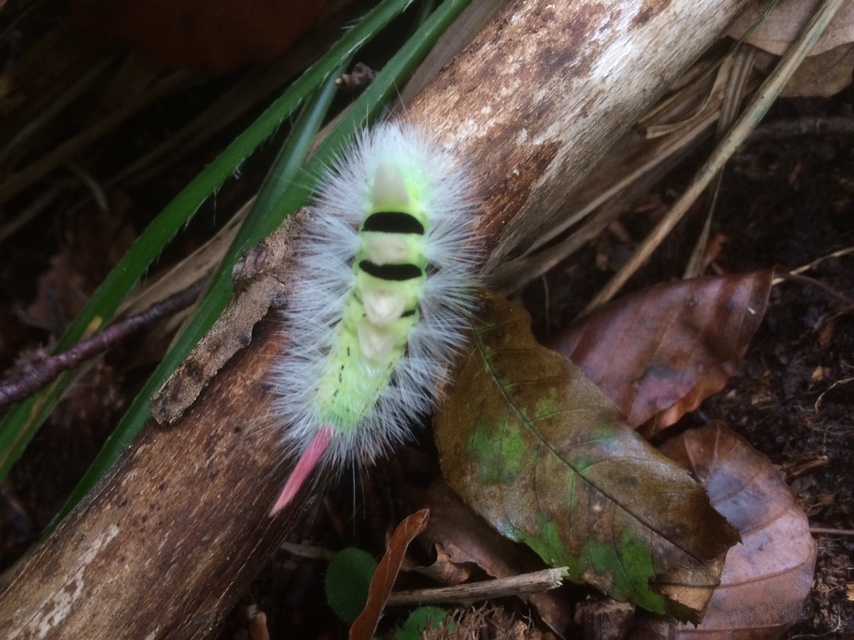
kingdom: Animalia
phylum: Arthropoda
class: Insecta
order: Lepidoptera
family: Erebidae
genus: Calliteara
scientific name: Calliteara pudibunda
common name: Pale tussock
